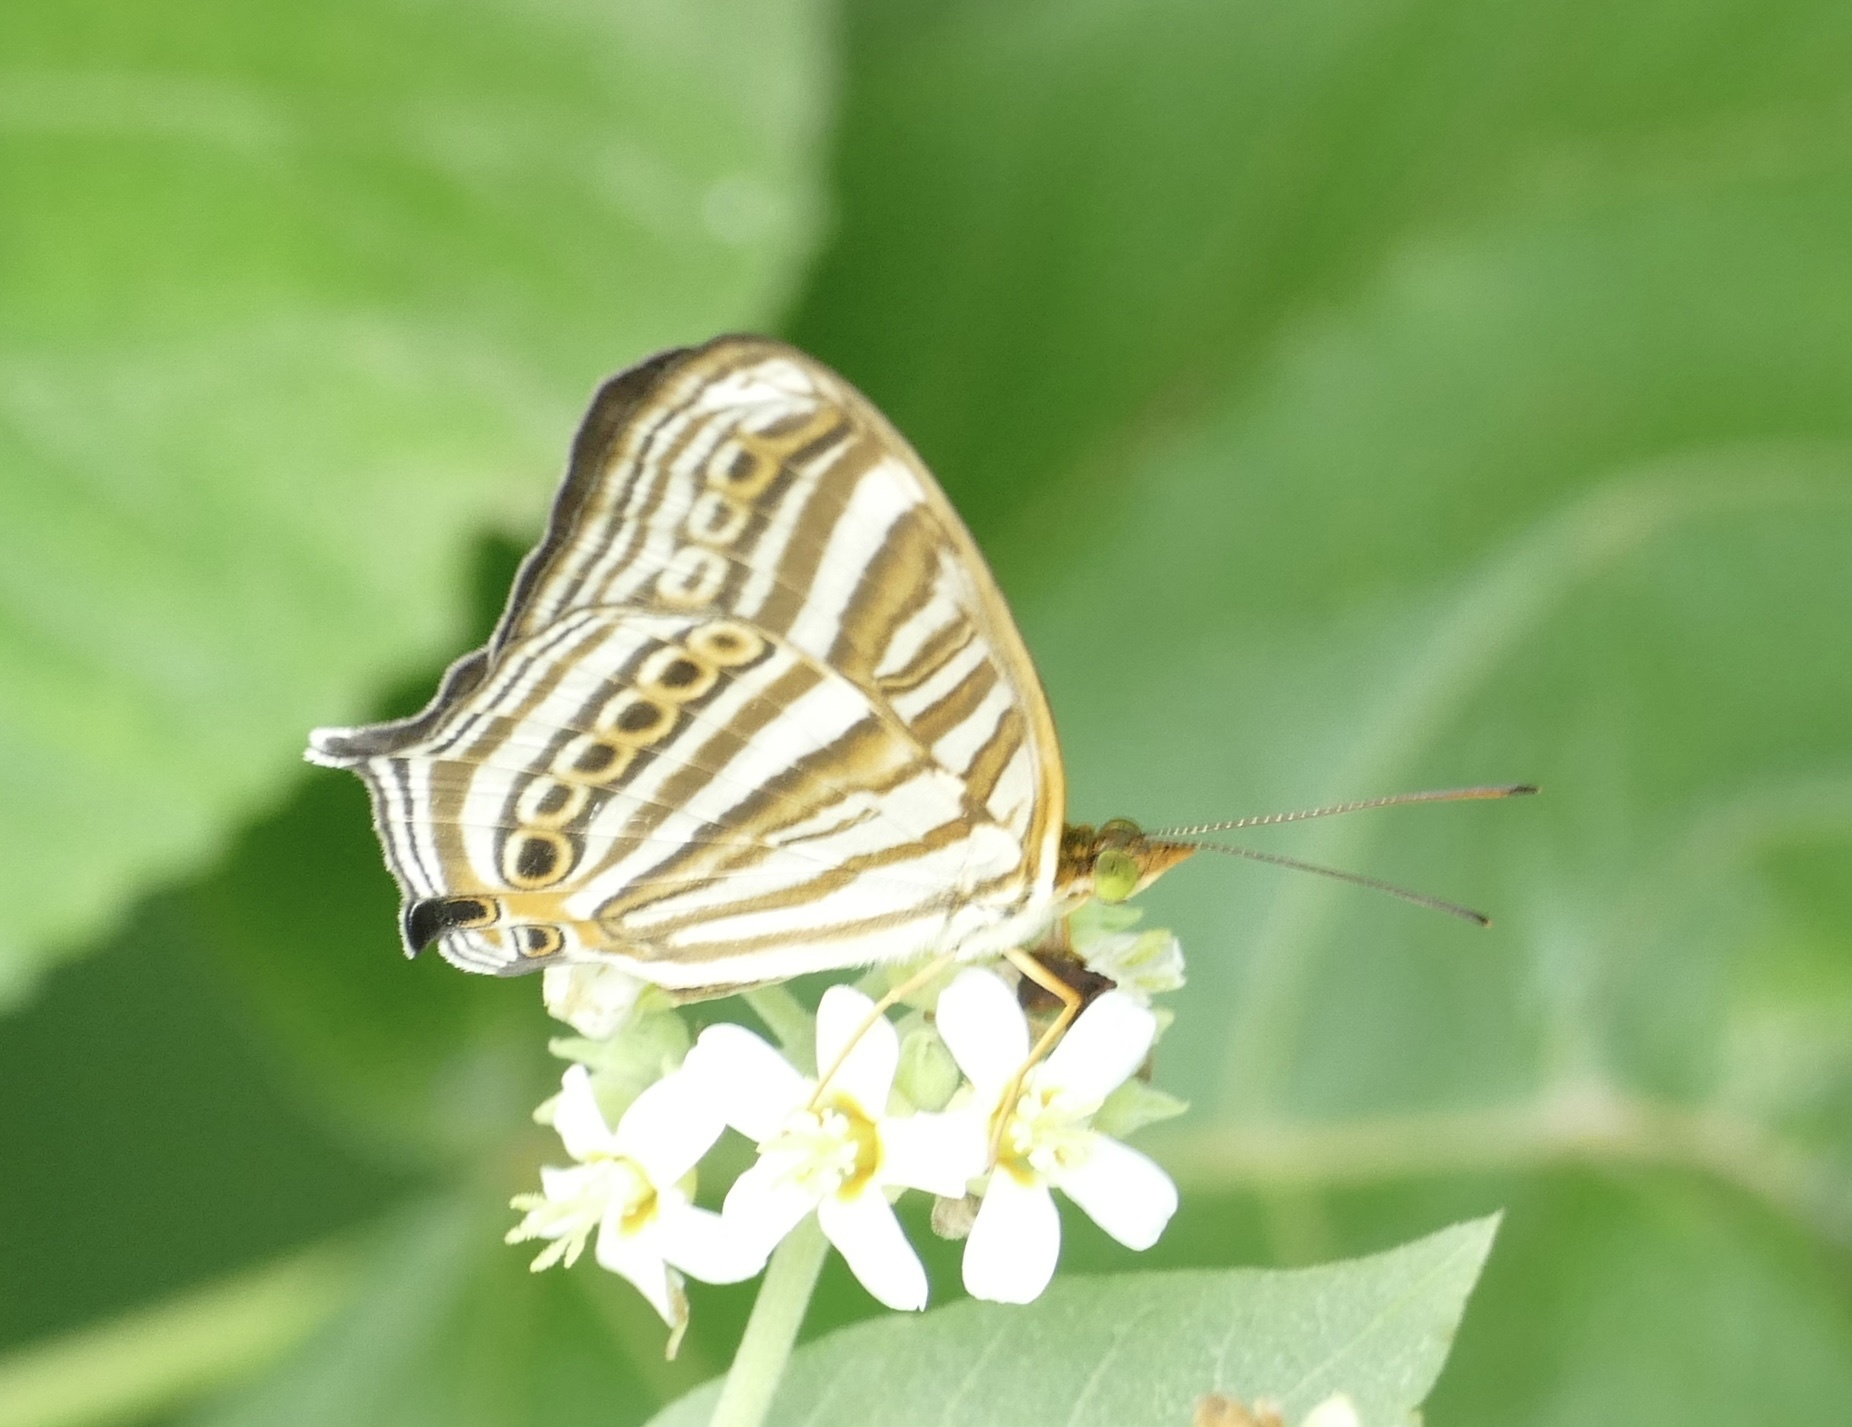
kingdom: Animalia
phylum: Arthropoda
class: Insecta
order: Lepidoptera
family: Nymphalidae
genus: Cyrestis
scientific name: Cyrestis strigata
